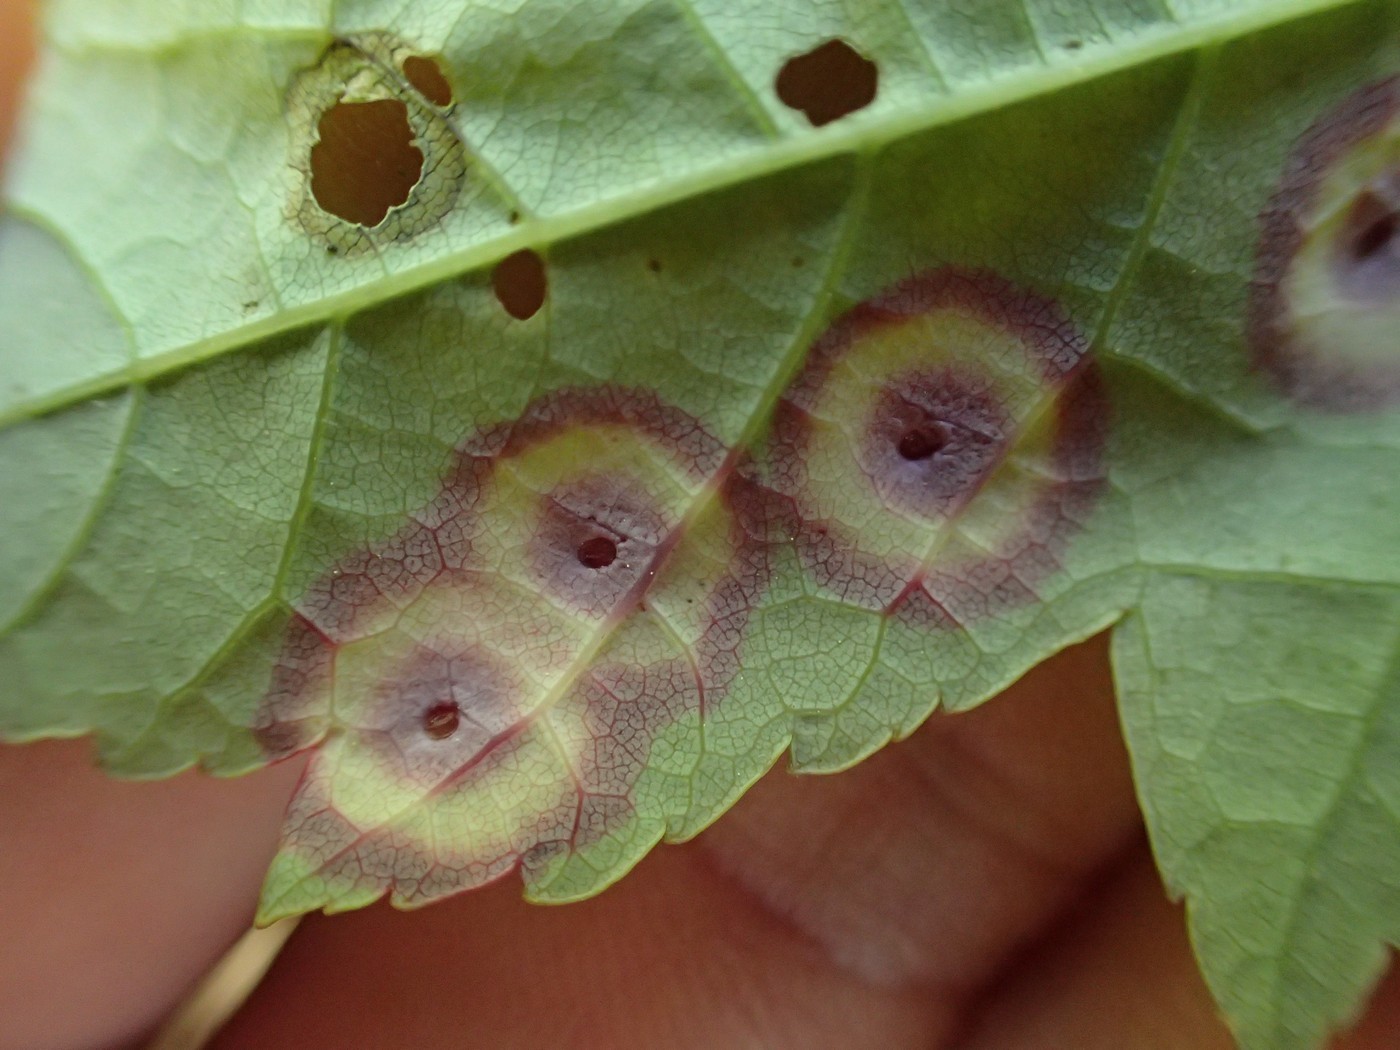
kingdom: Animalia
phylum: Arthropoda
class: Insecta
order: Diptera
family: Cecidomyiidae
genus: Acericecis
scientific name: Acericecis ocellaris
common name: Ocellate gall midge
